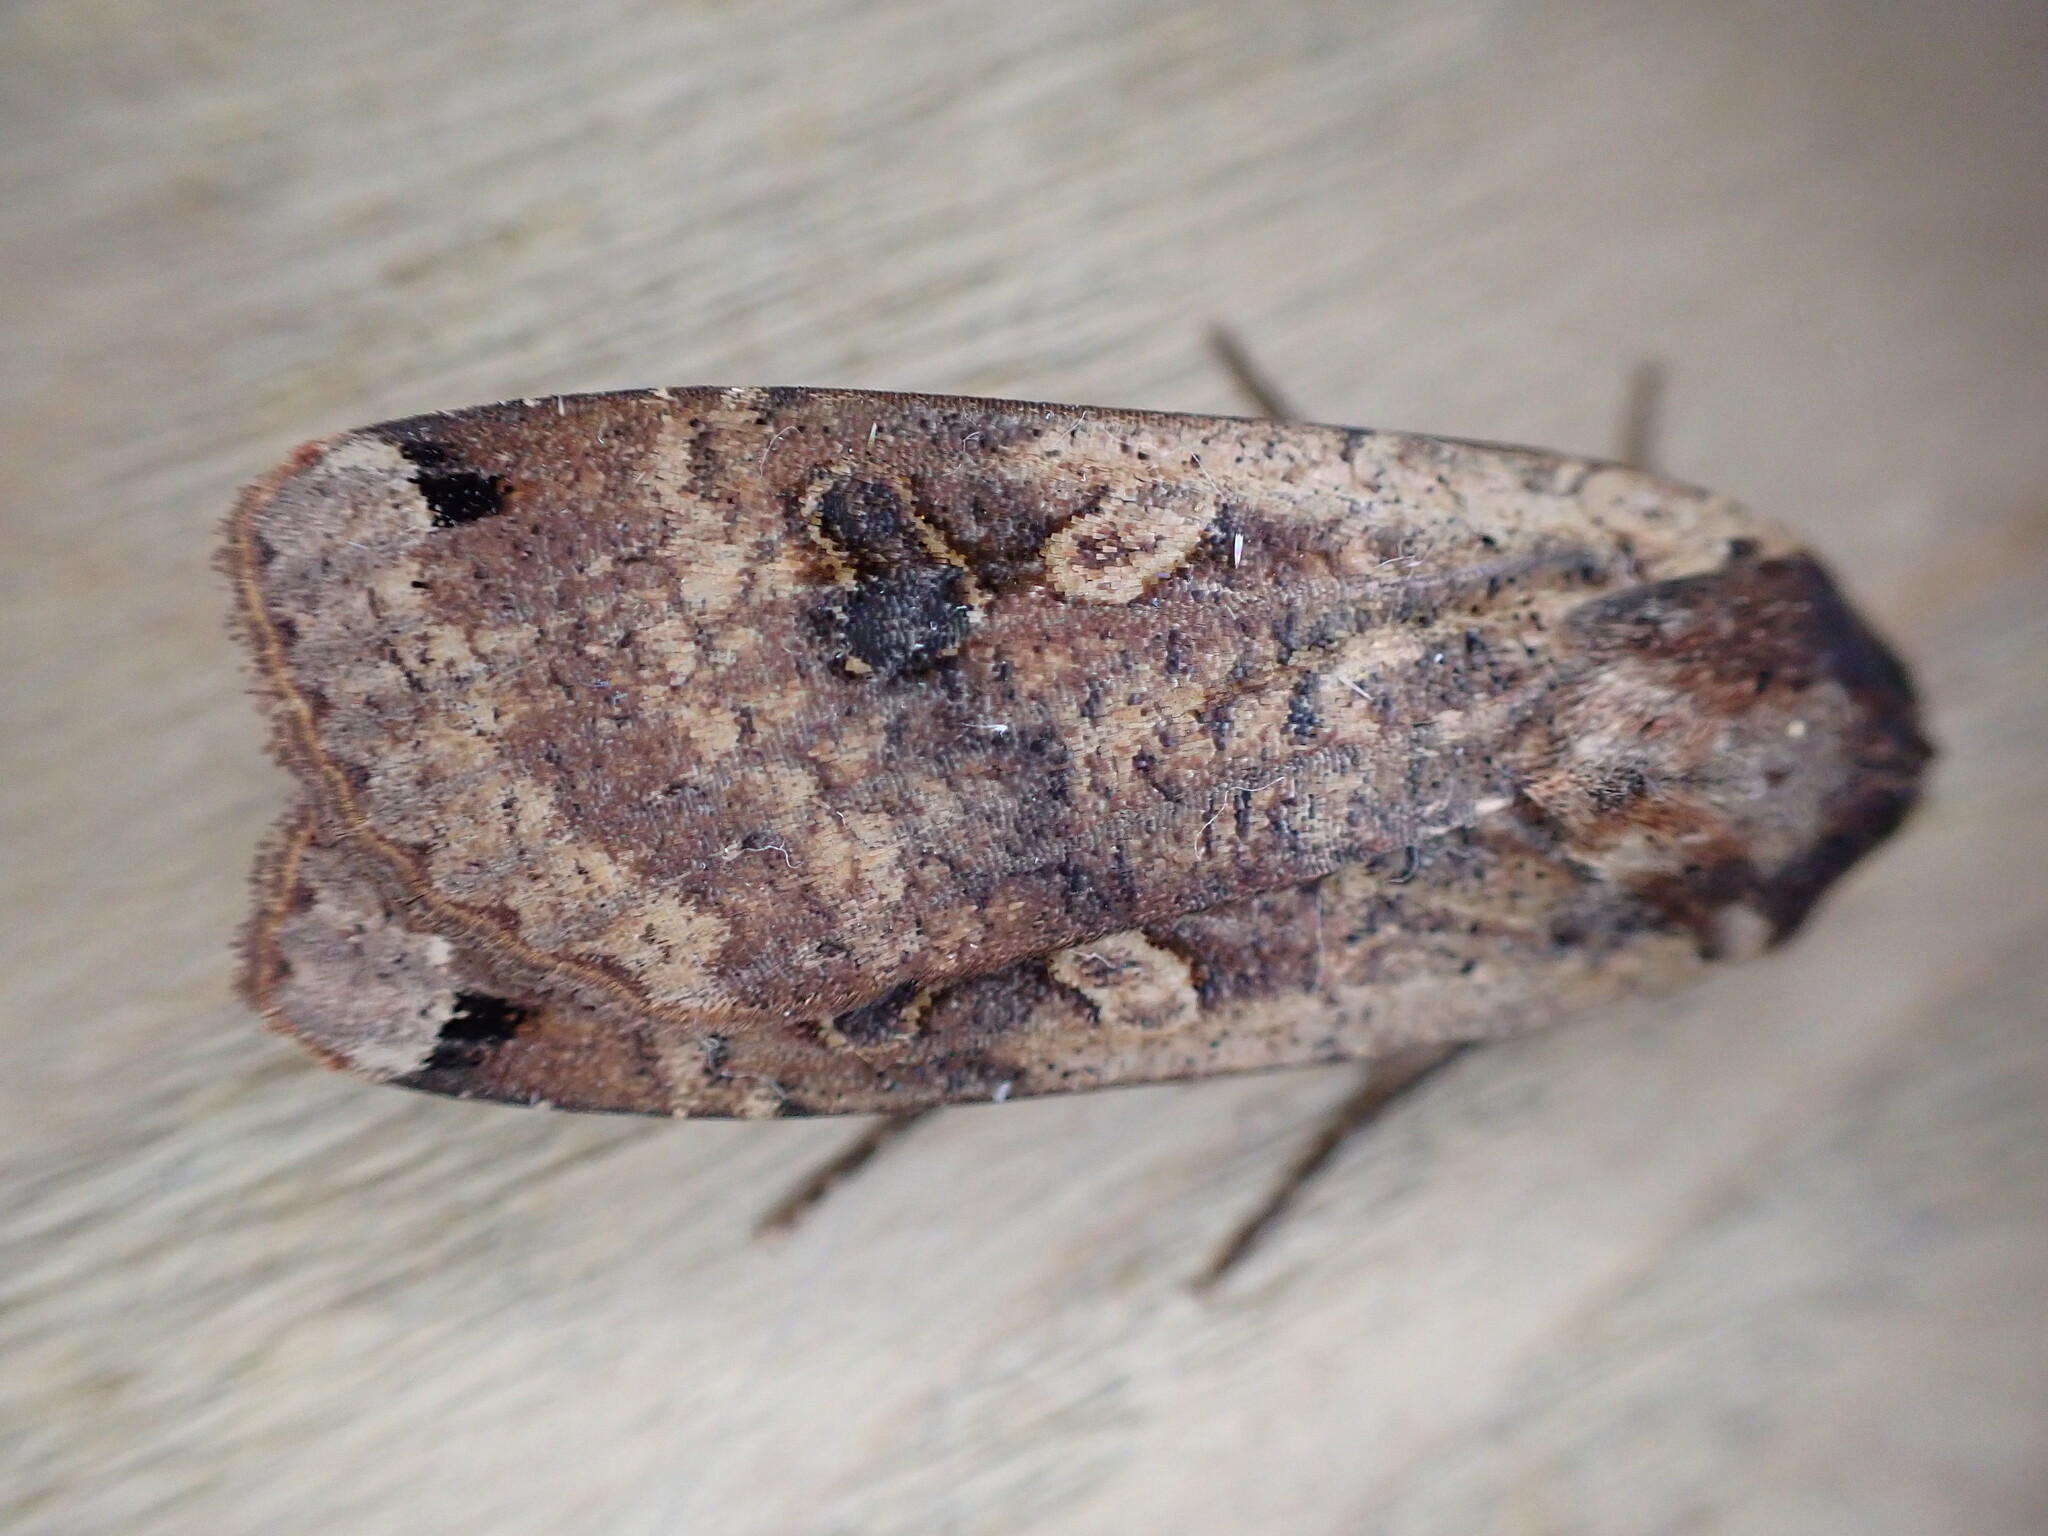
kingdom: Animalia
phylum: Arthropoda
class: Insecta
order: Lepidoptera
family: Noctuidae
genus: Noctua
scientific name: Noctua pronuba
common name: Large yellow underwing
